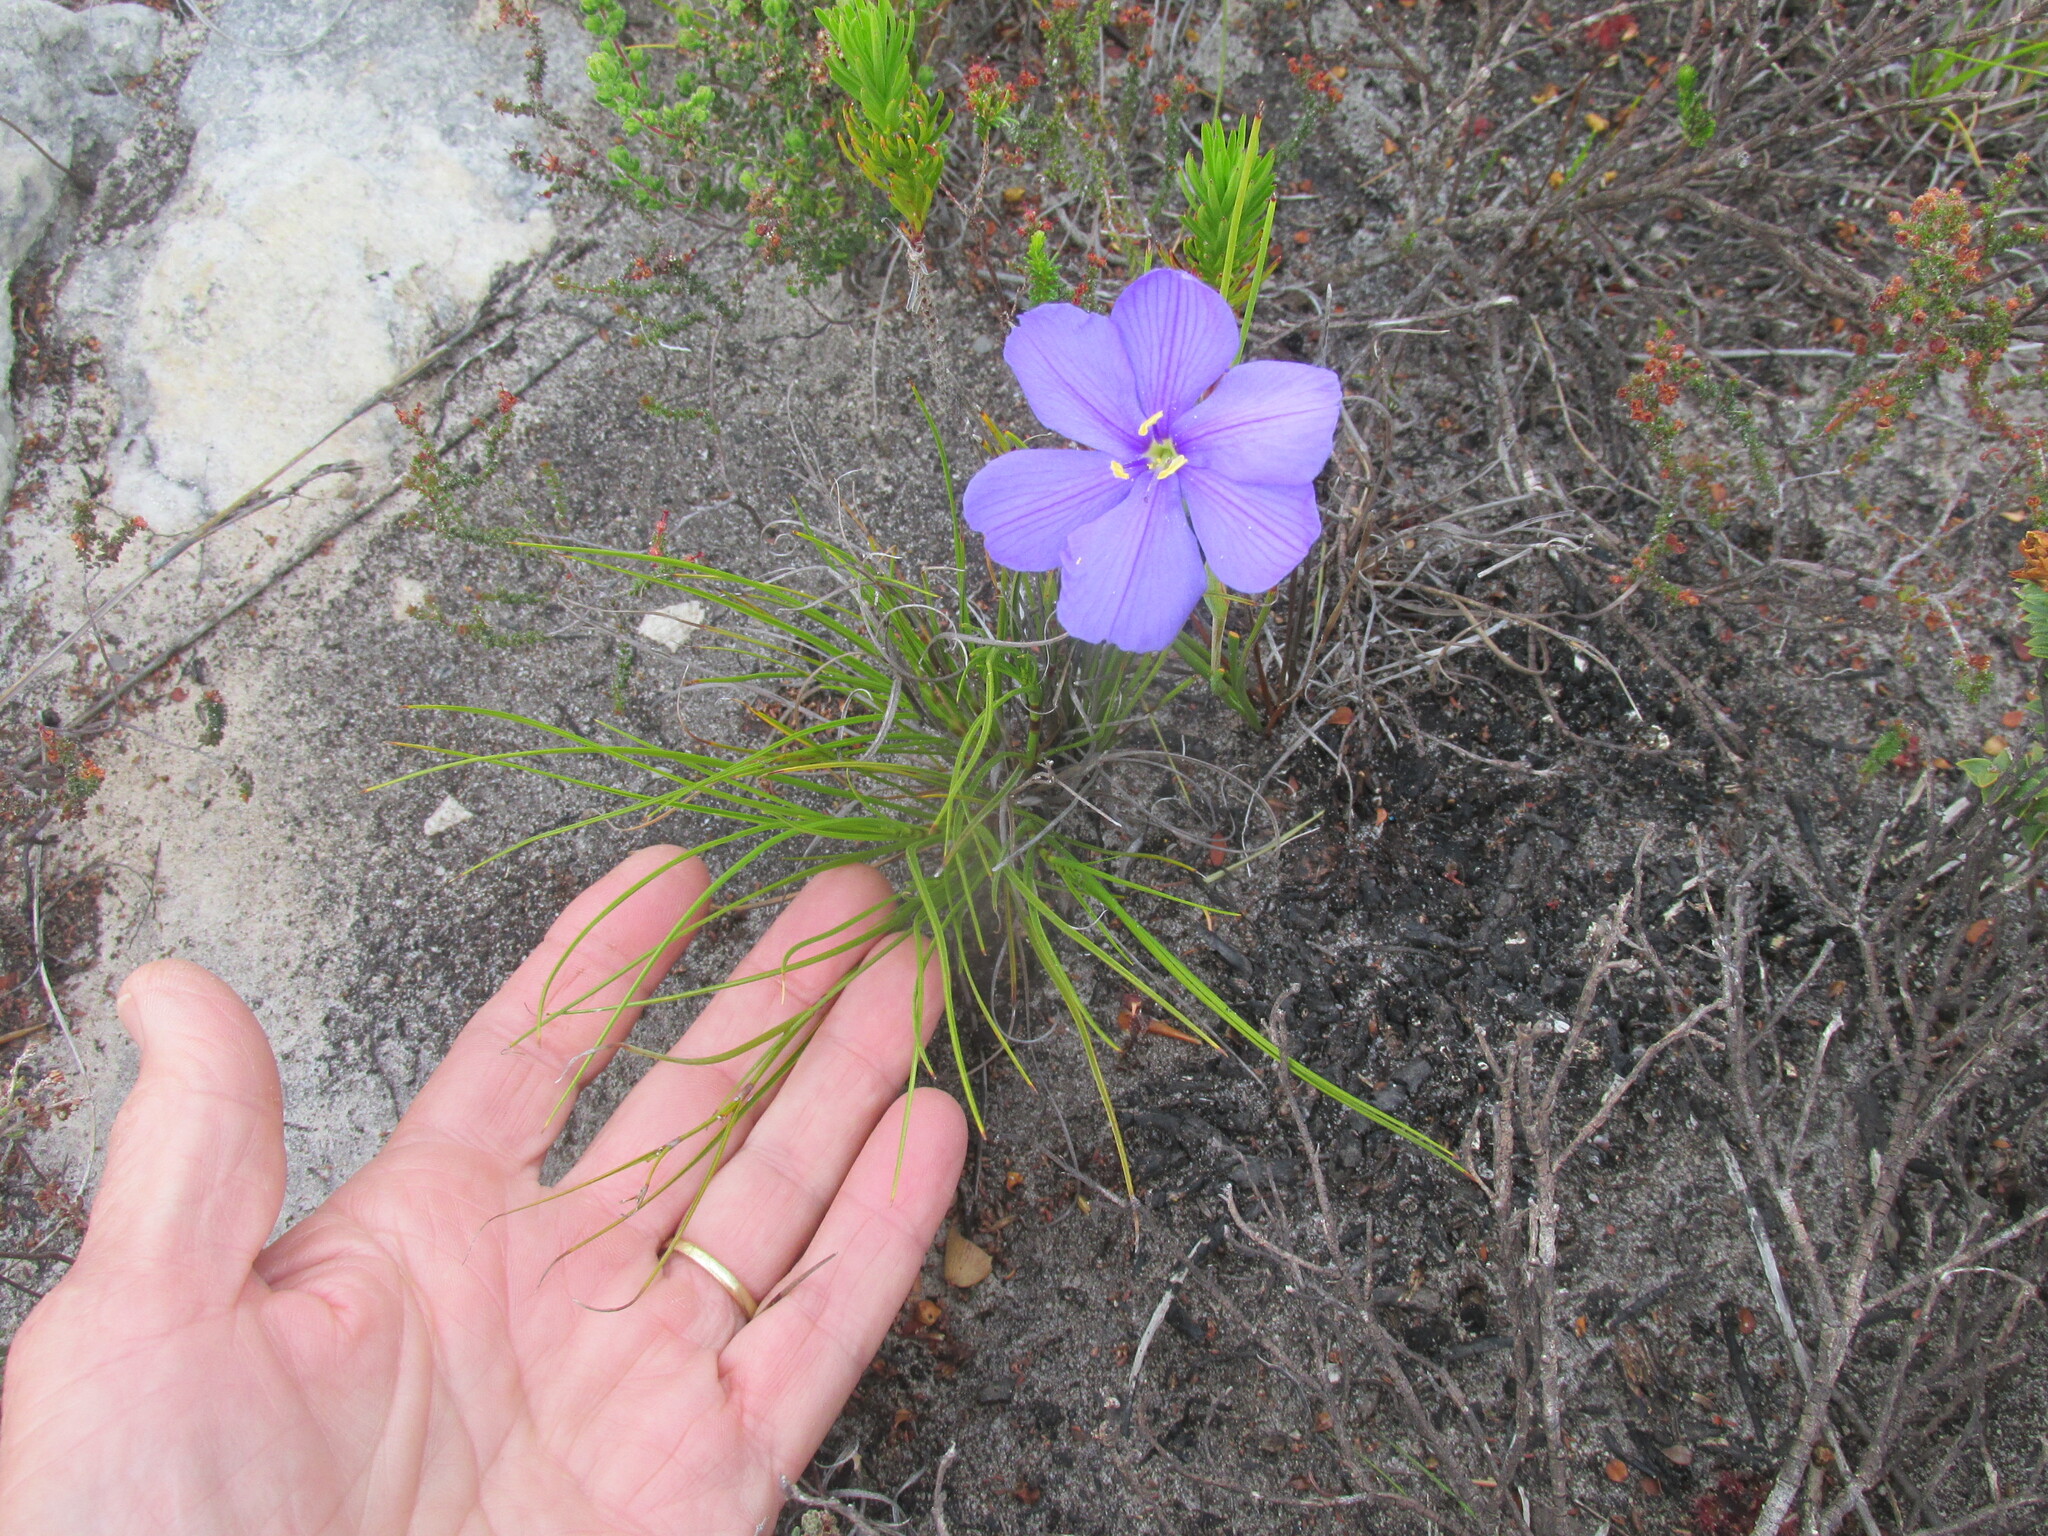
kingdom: Plantae
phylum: Tracheophyta
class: Liliopsida
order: Asparagales
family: Iridaceae
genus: Aristea
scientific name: Aristea juncifolia
